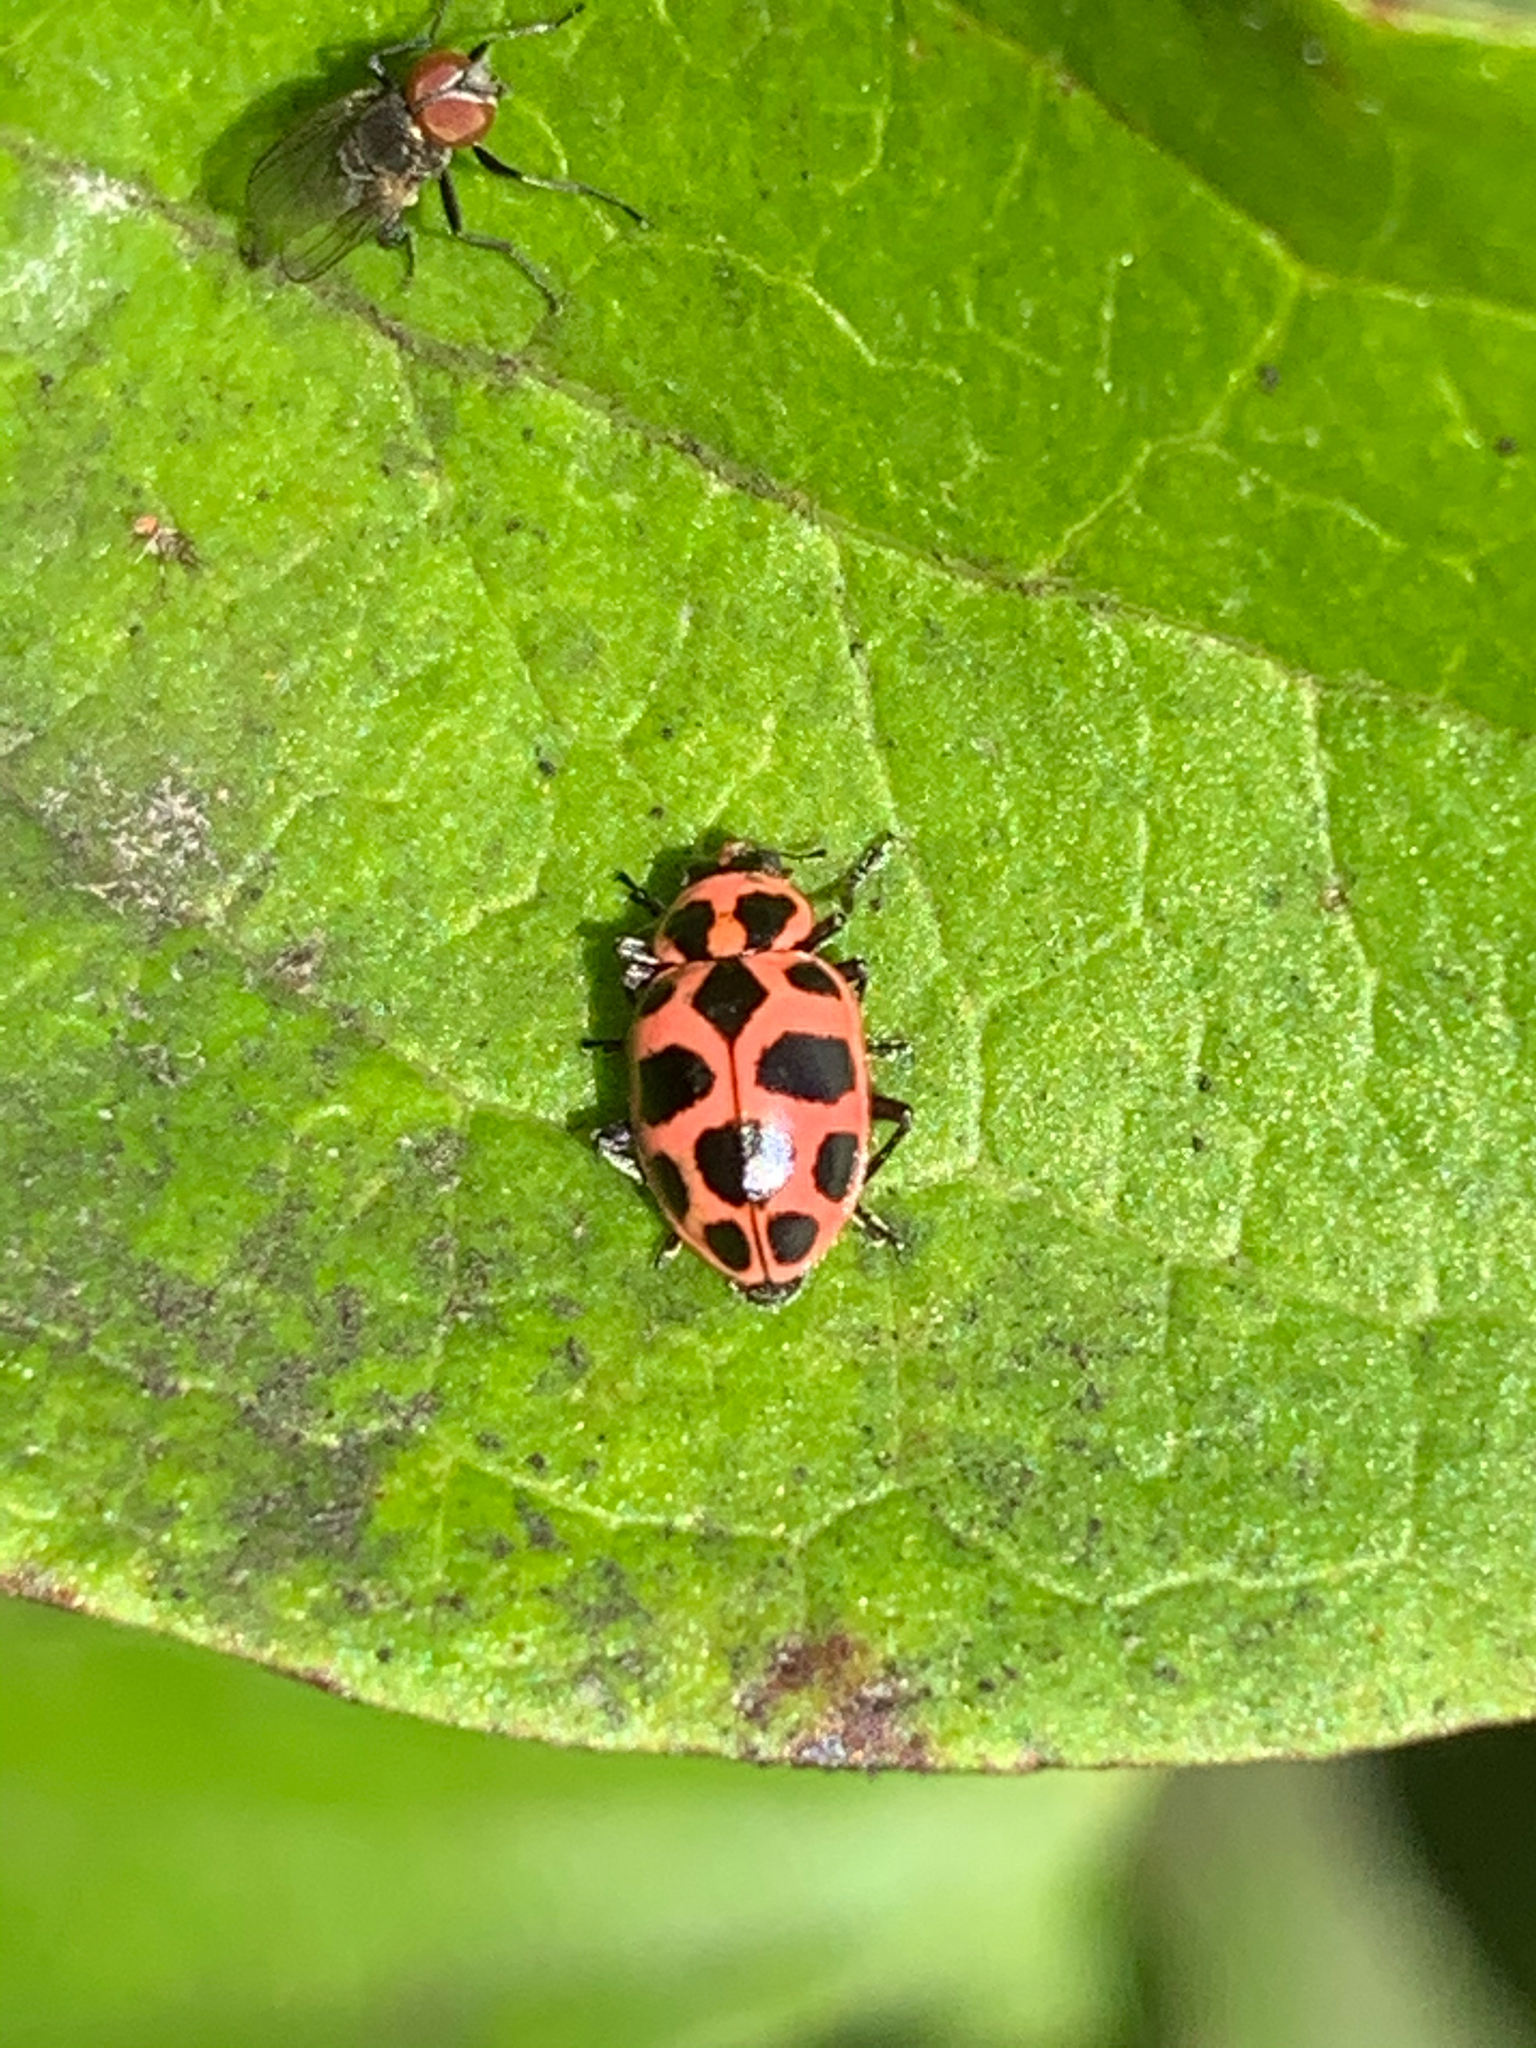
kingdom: Animalia
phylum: Arthropoda
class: Insecta
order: Coleoptera
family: Coccinellidae
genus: Coleomegilla
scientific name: Coleomegilla maculata
